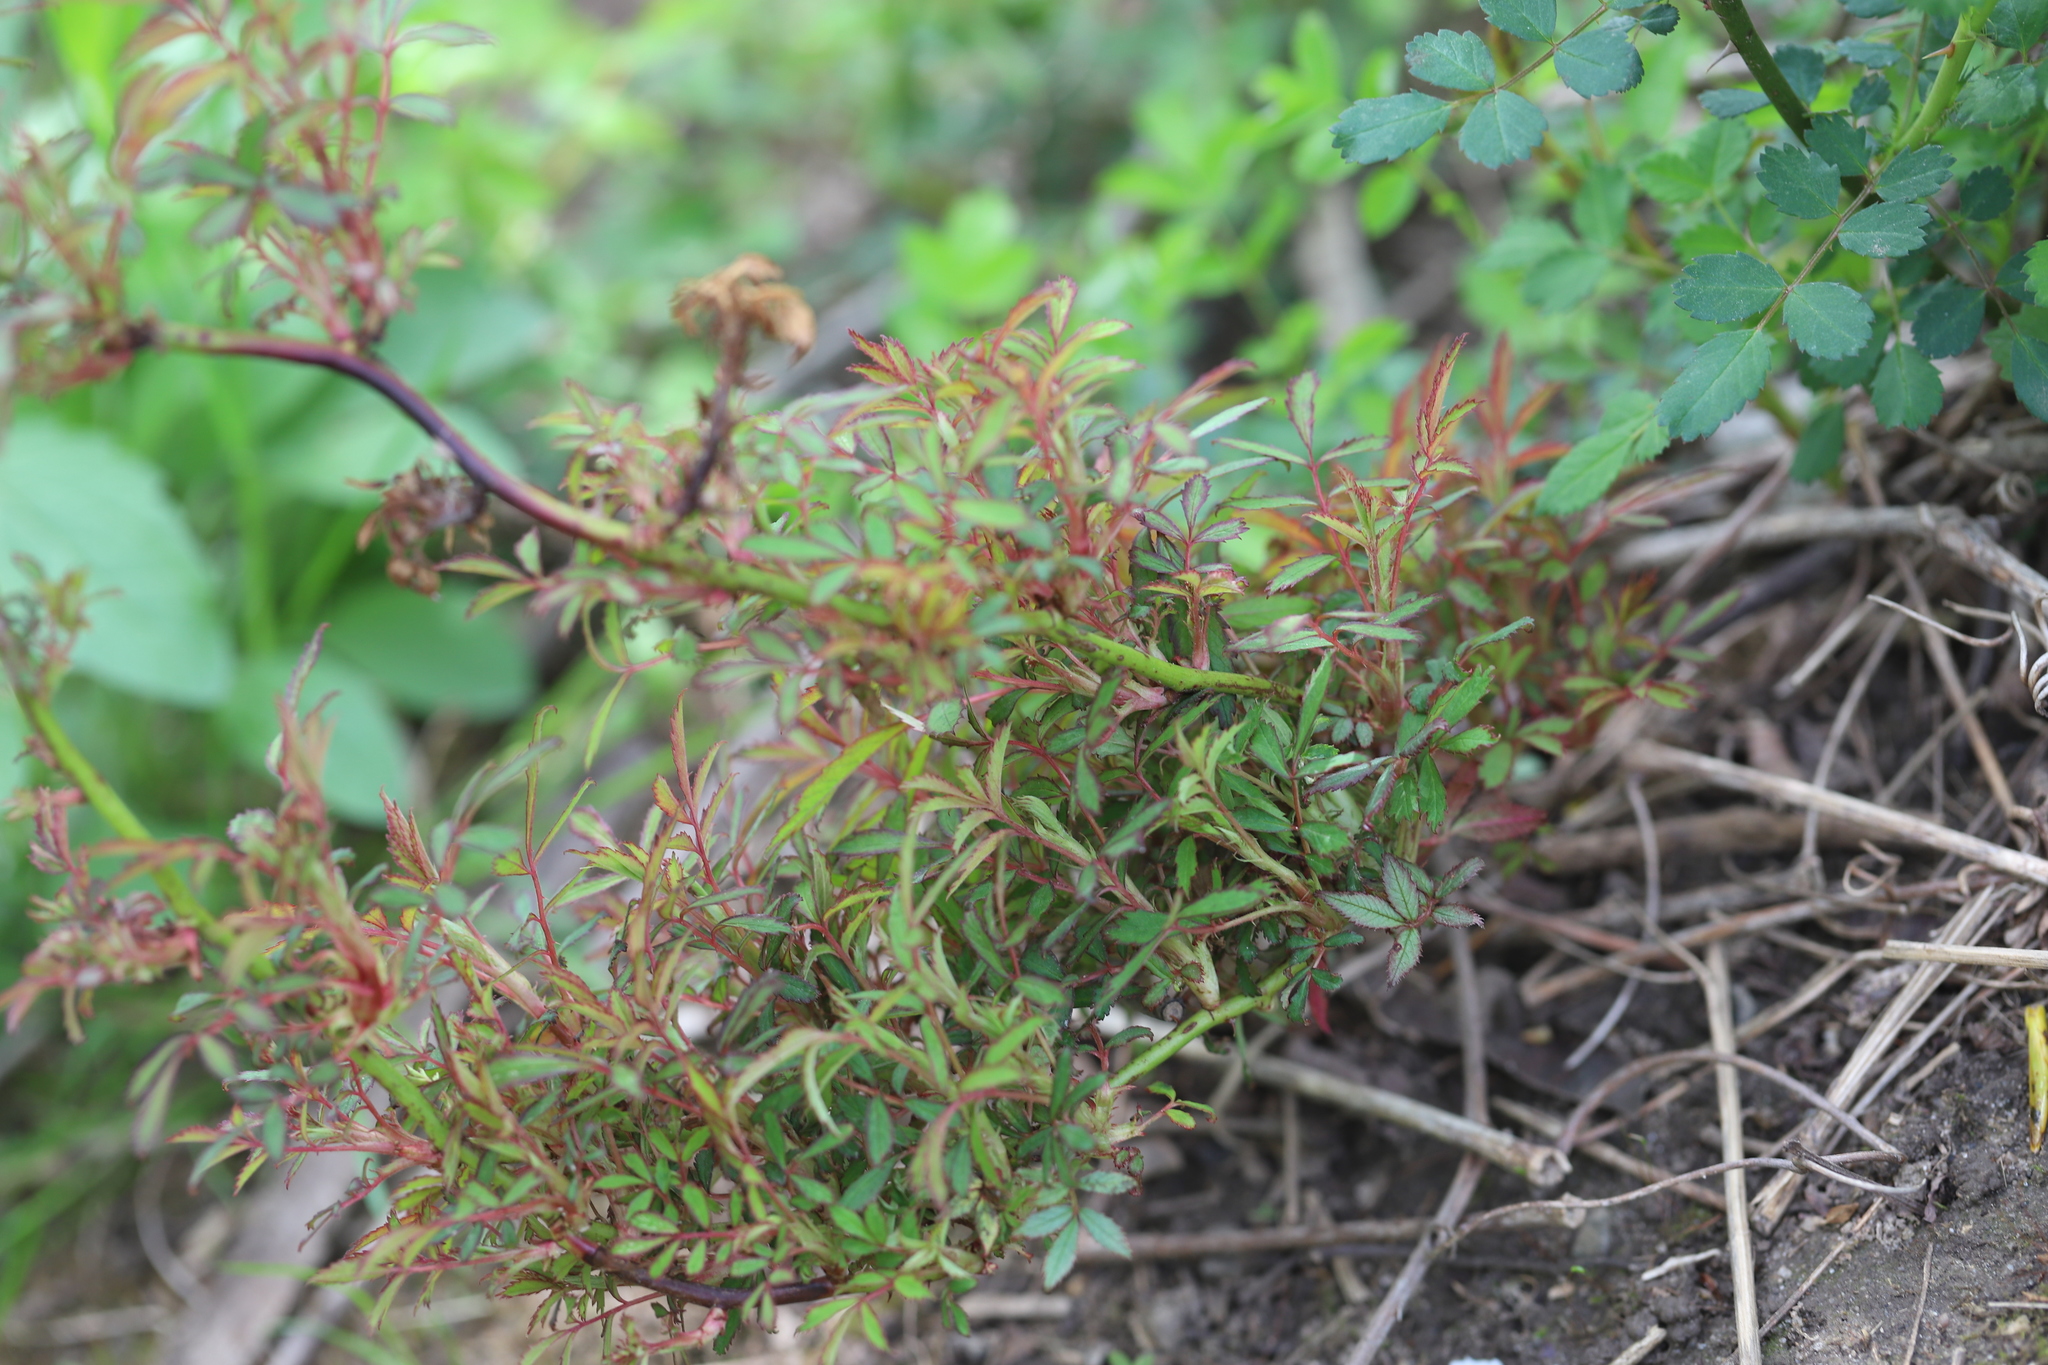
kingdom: Viruses
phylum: Negarnaviricota
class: Ellioviricetes
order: Bunyavirales
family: Fimoviridae
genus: Emaravirus
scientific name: Emaravirus rosae
